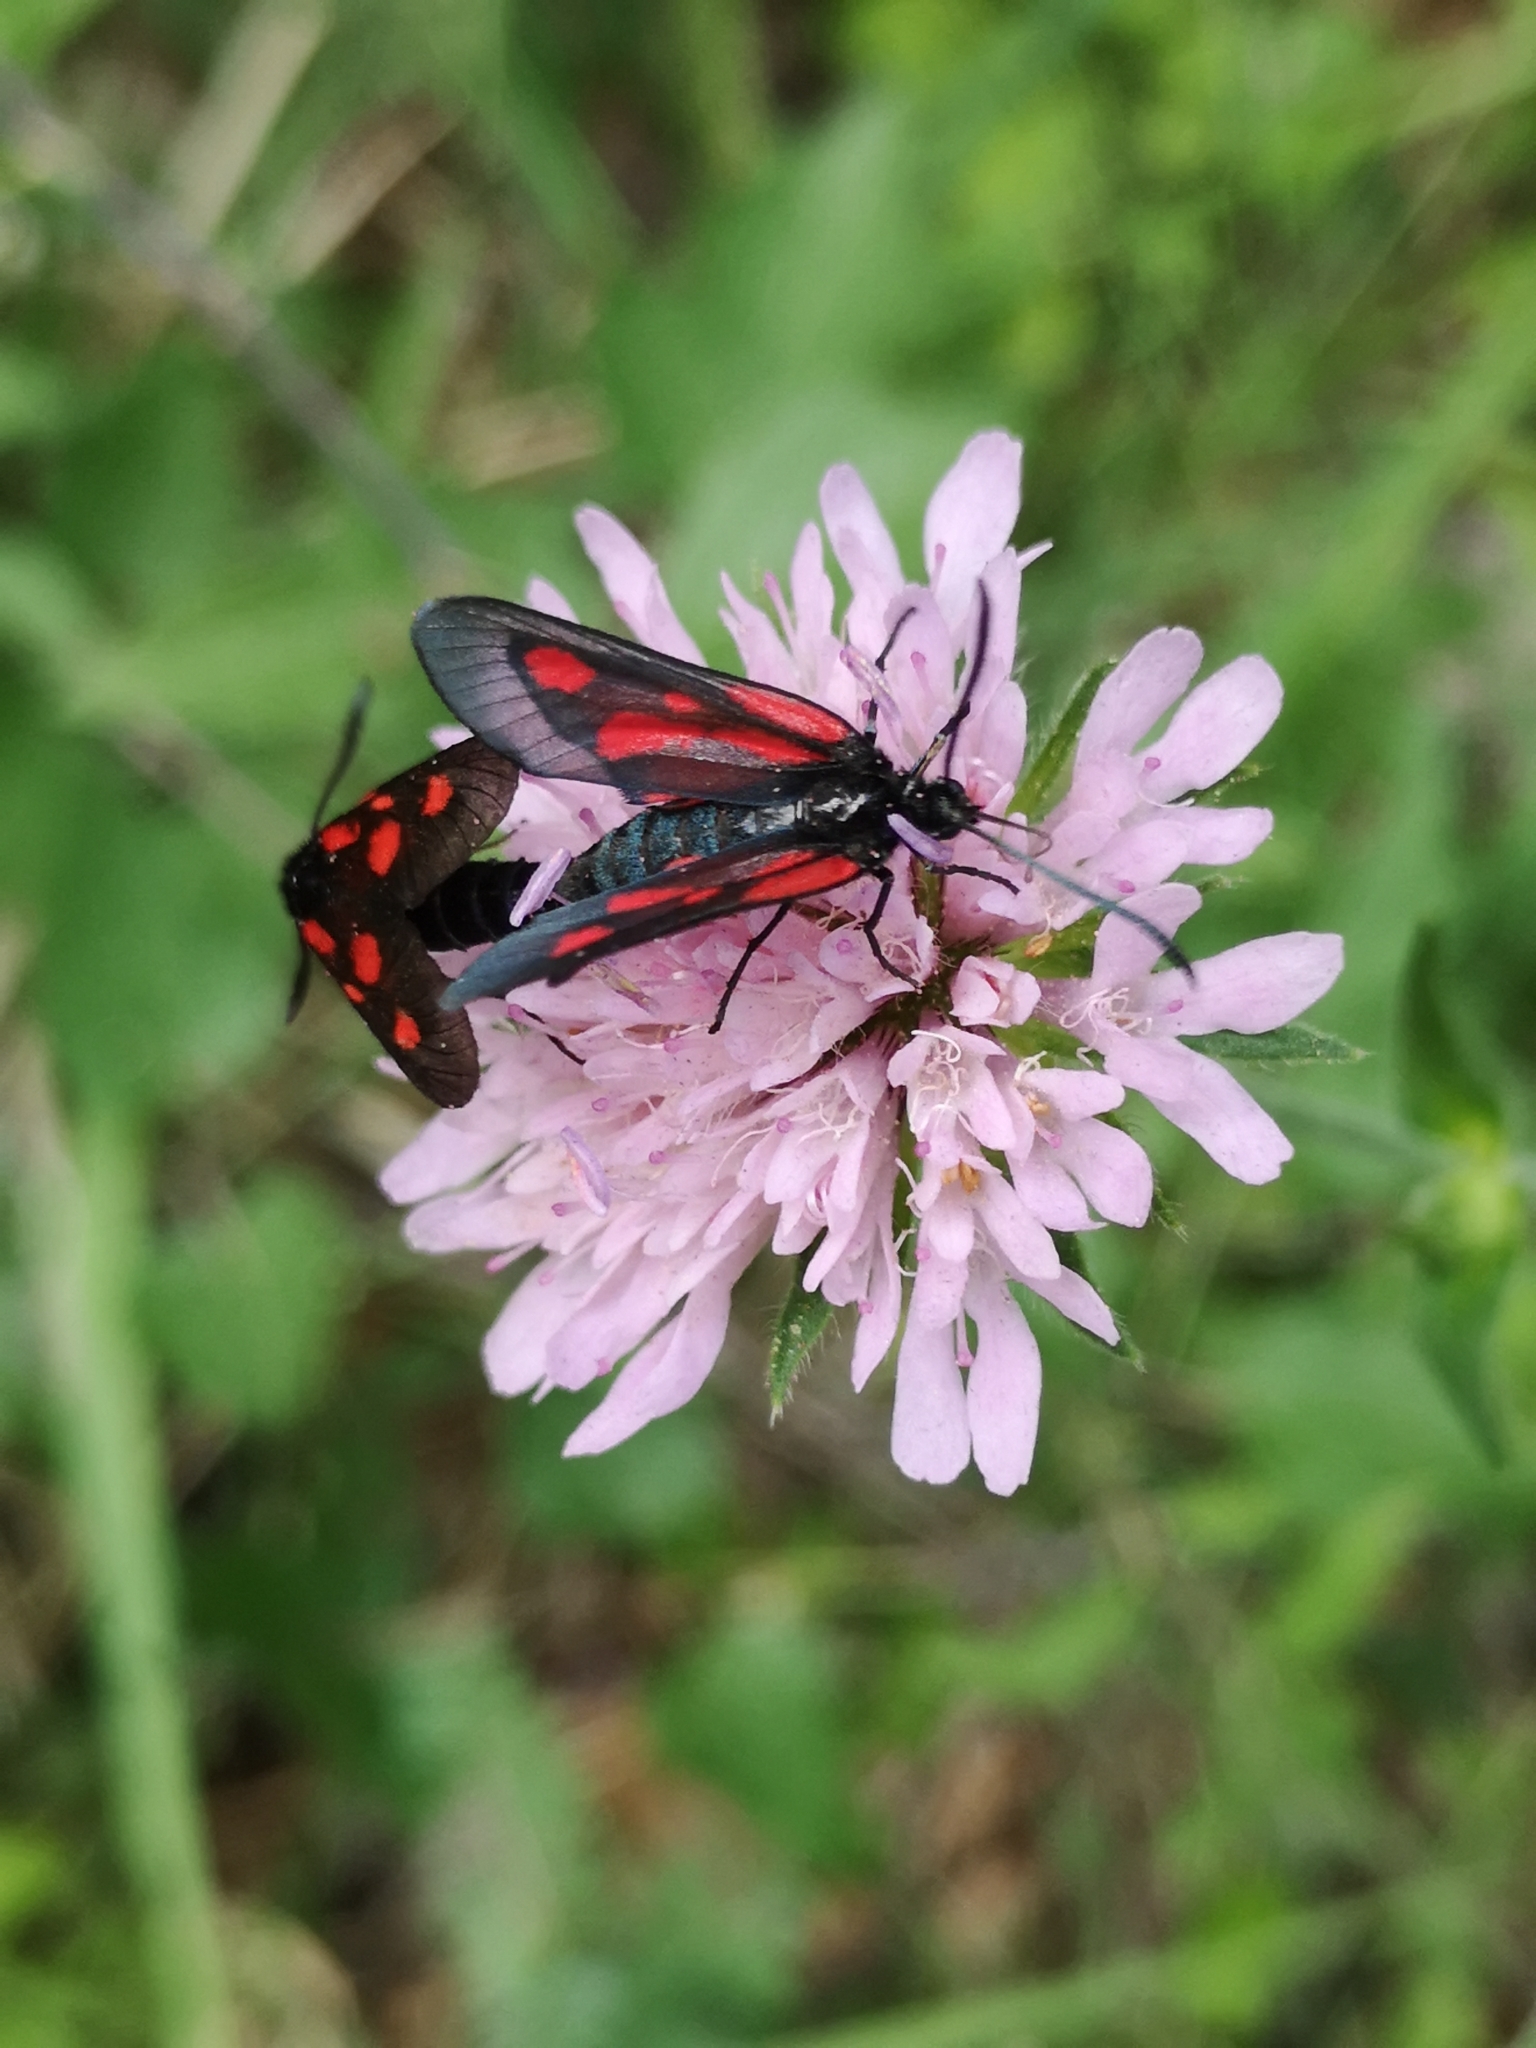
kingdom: Animalia
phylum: Arthropoda
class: Insecta
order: Lepidoptera
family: Zygaenidae
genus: Zygaena
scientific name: Zygaena romeo
